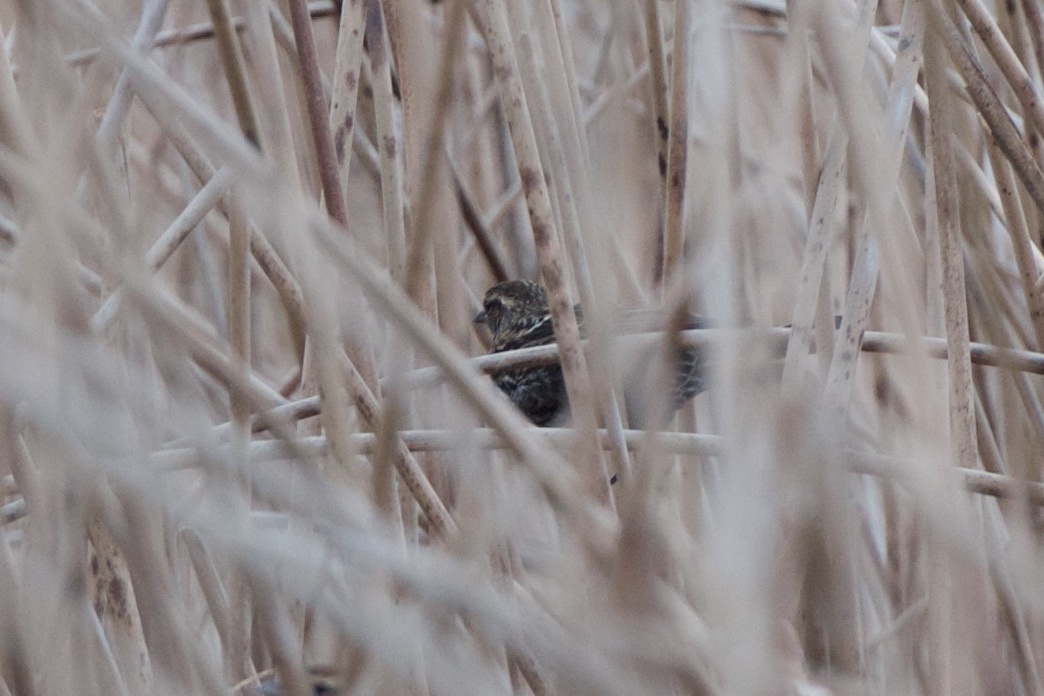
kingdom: Animalia
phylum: Chordata
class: Aves
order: Passeriformes
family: Icteridae
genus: Agelaius
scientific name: Agelaius phoeniceus
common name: Red-winged blackbird
